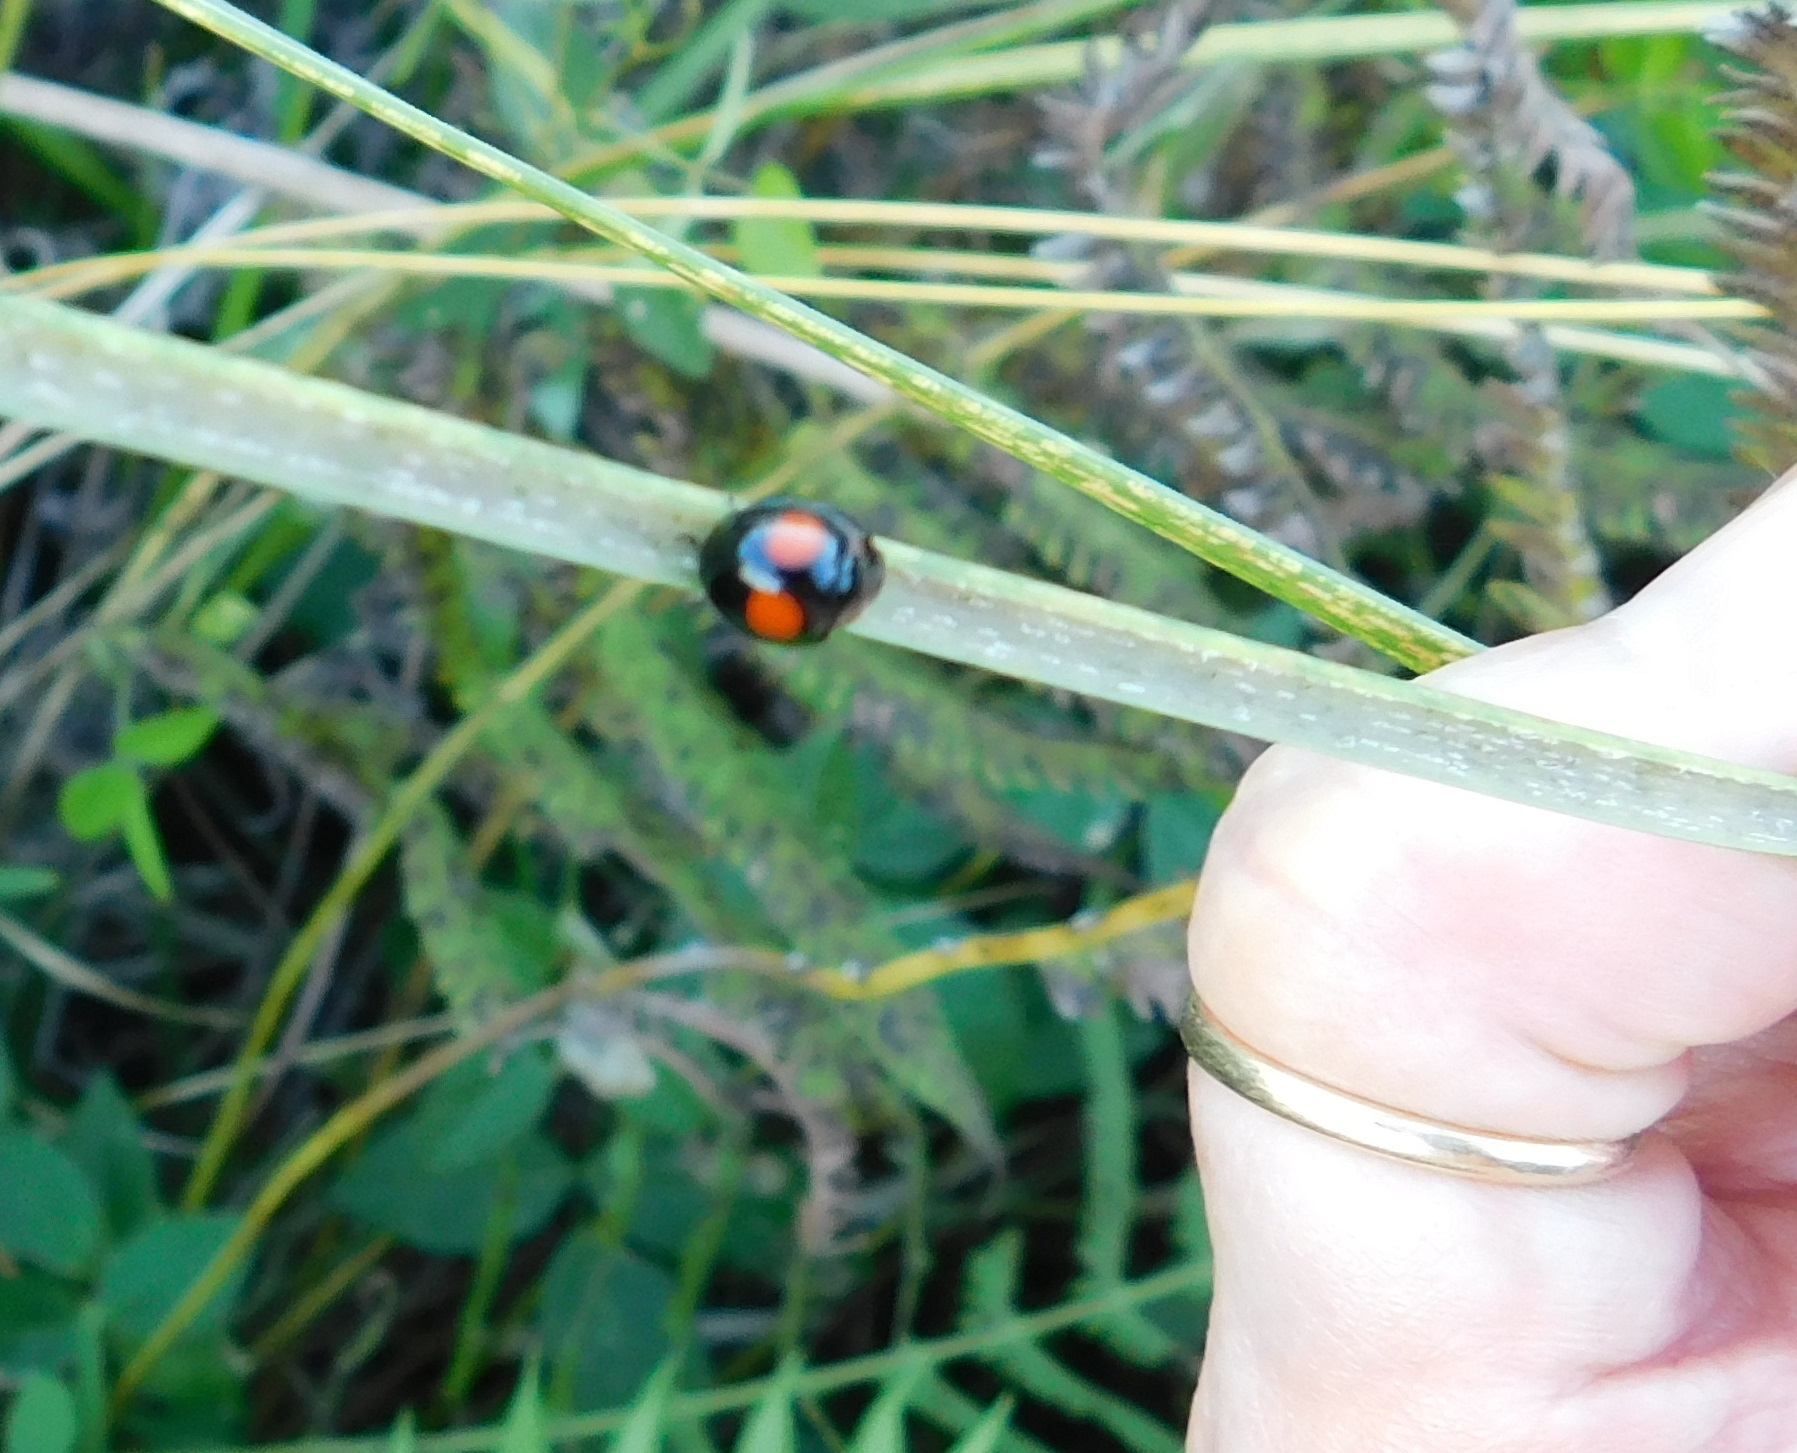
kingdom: Animalia
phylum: Arthropoda
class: Insecta
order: Coleoptera
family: Coccinellidae
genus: Chilocorus
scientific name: Chilocorus cacti
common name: Cactus lady beetle
